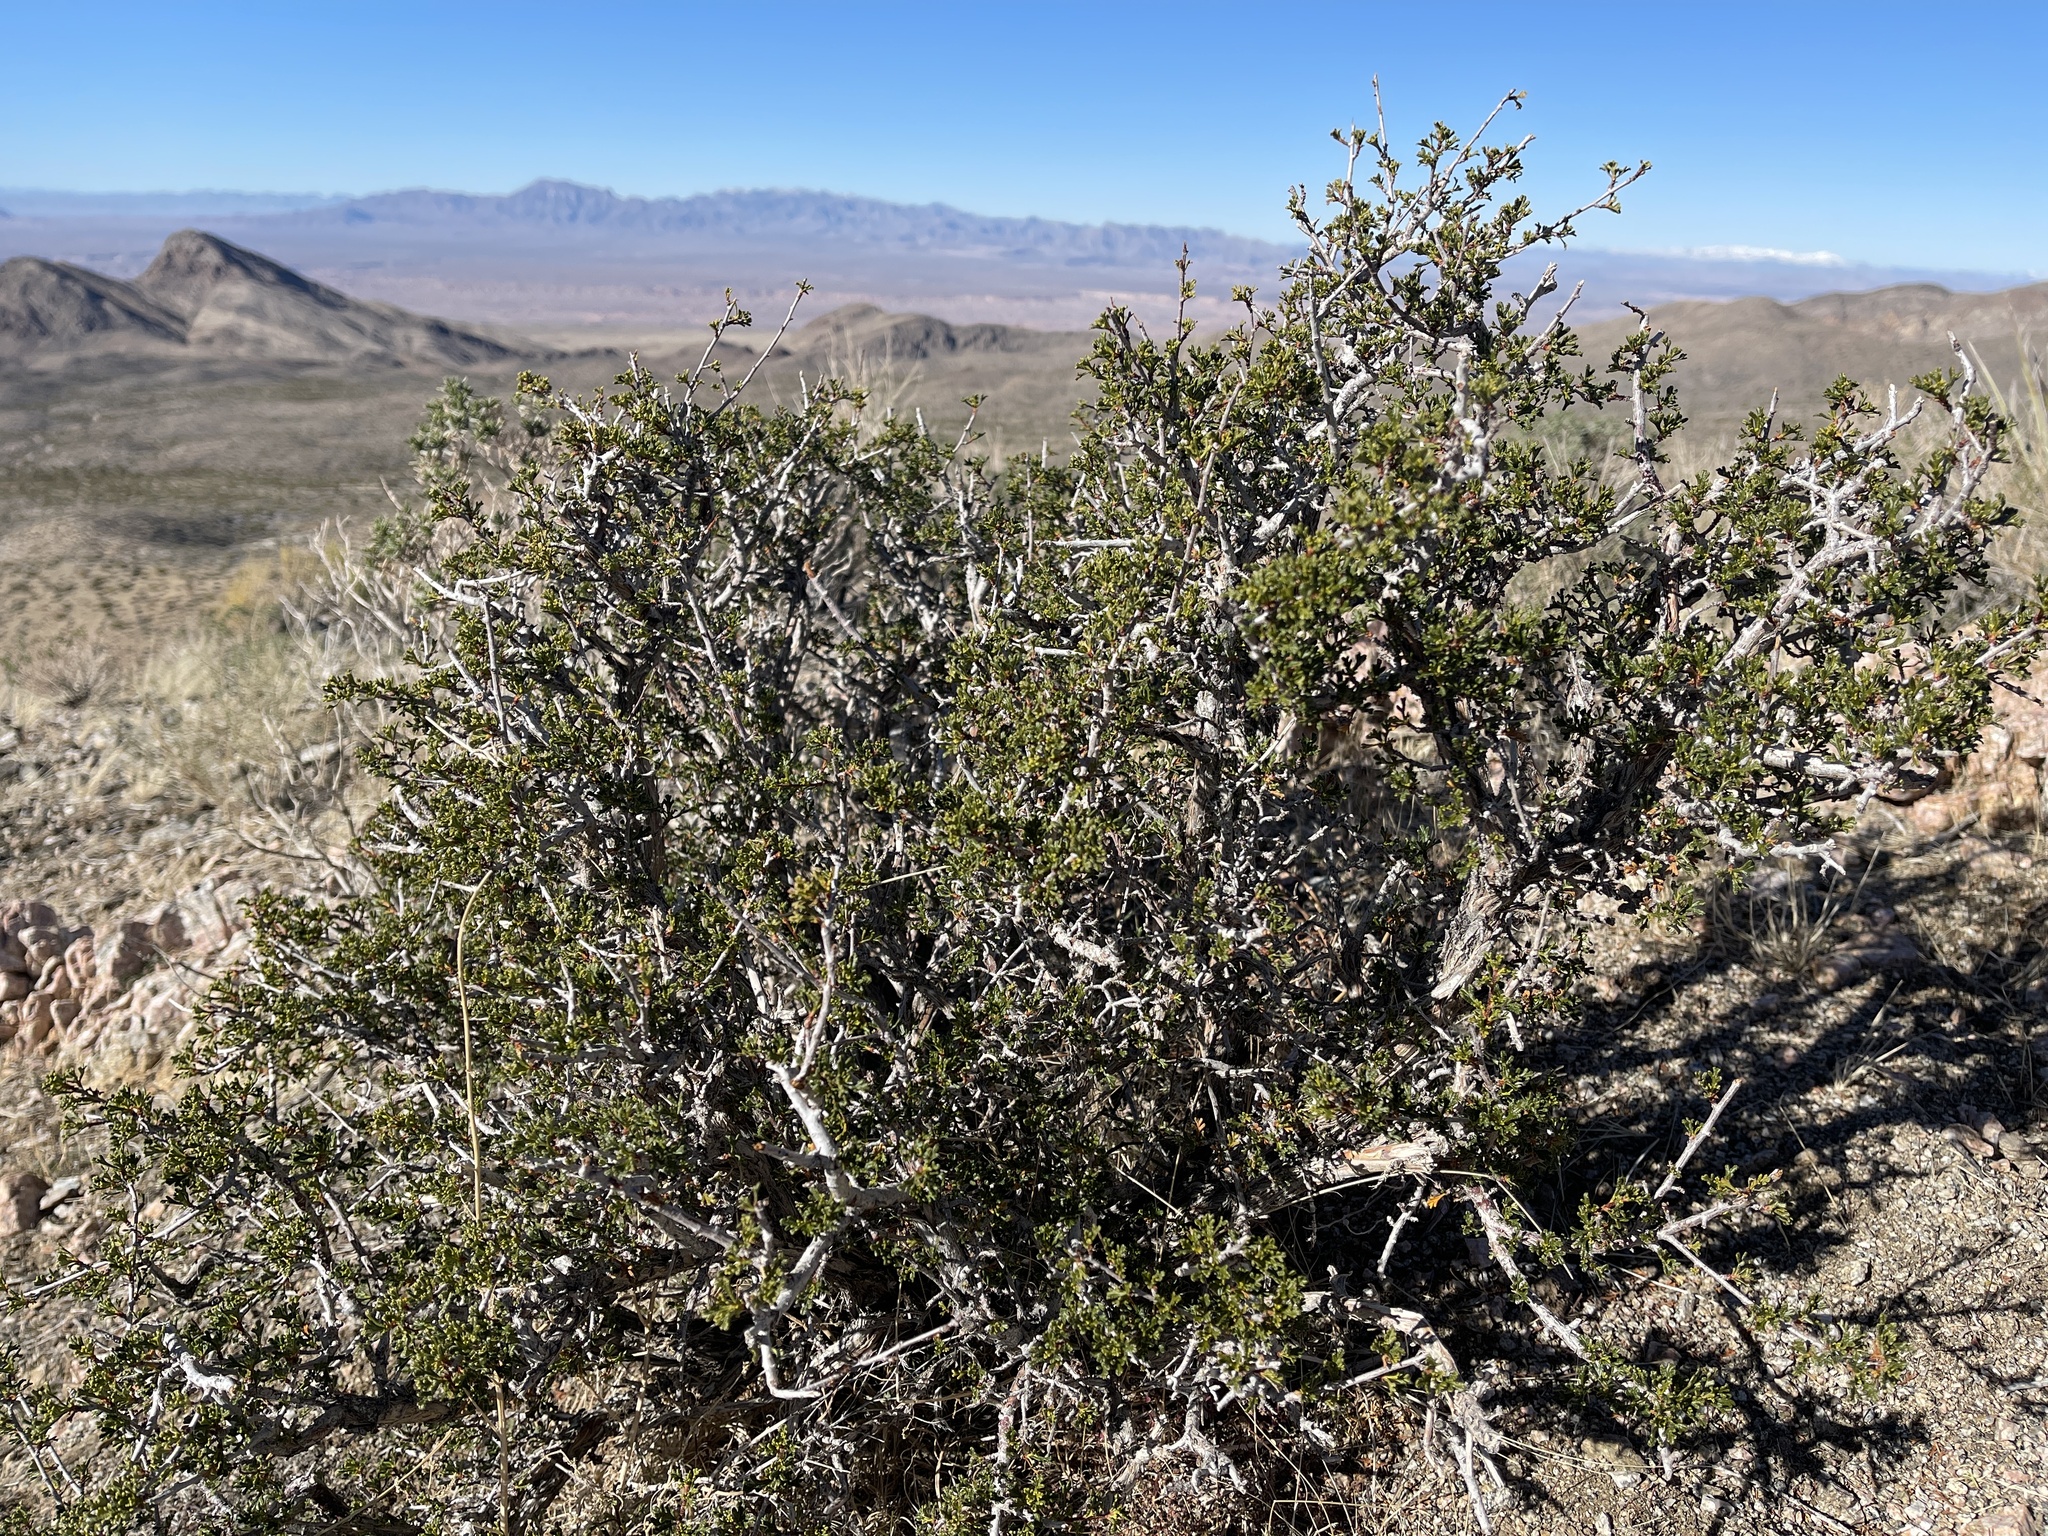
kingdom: Plantae
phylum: Tracheophyta
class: Magnoliopsida
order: Rosales
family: Rosaceae
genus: Purshia
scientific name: Purshia stansburiana
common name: Stansbury's cliffrose
